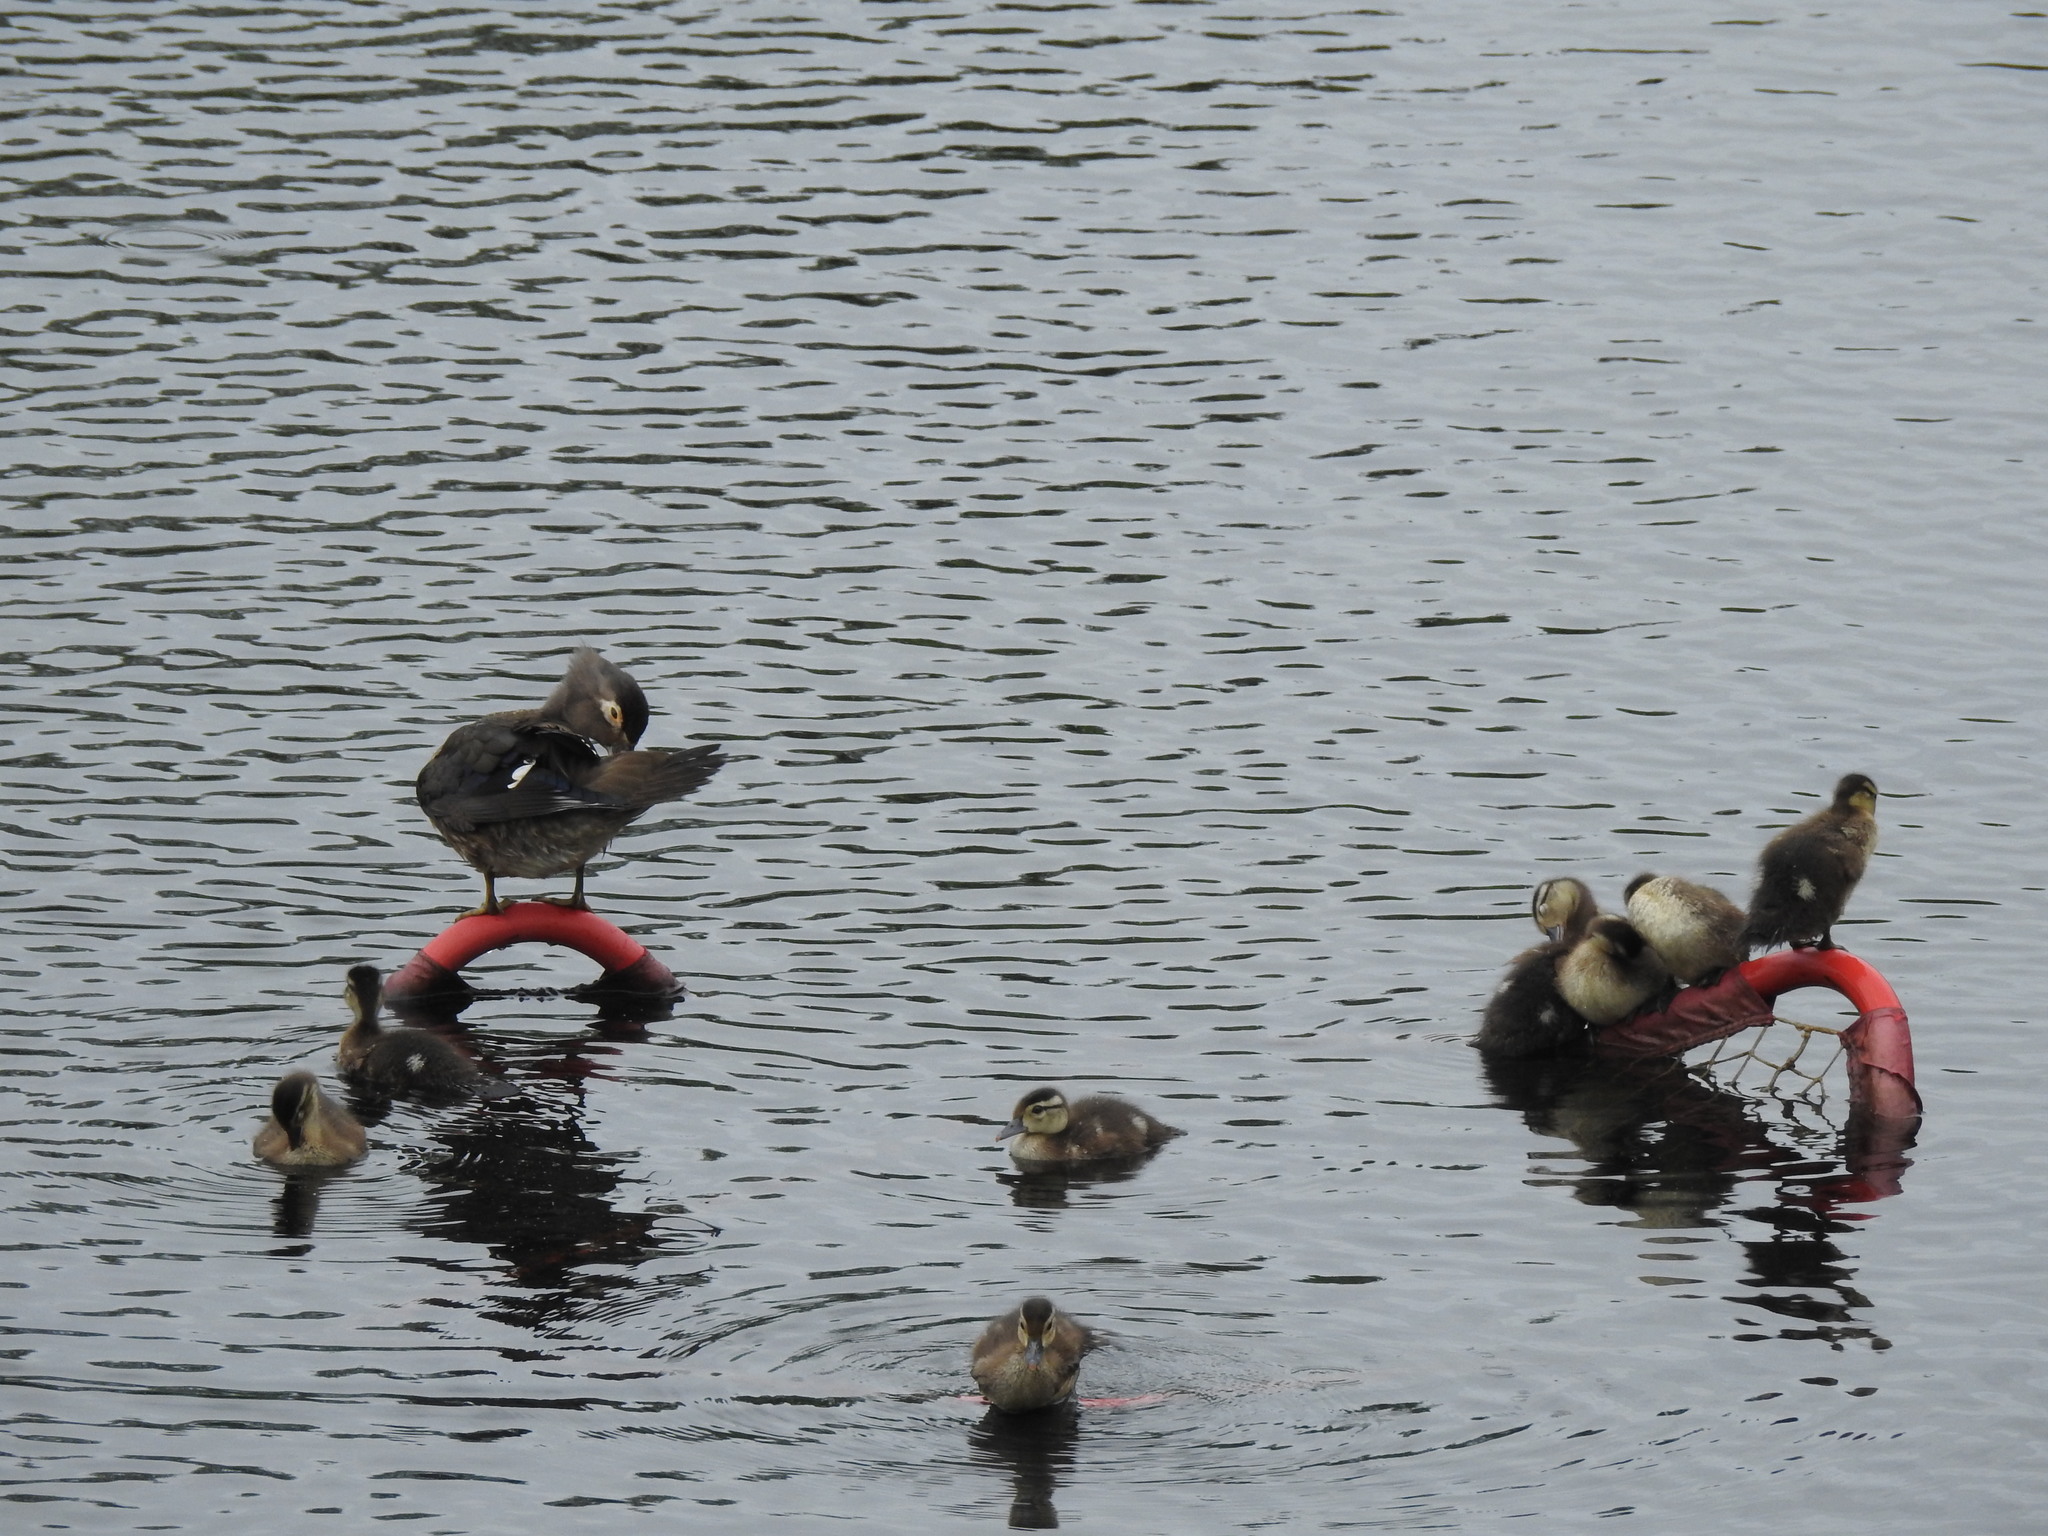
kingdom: Animalia
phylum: Chordata
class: Aves
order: Anseriformes
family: Anatidae
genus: Aix
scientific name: Aix sponsa
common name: Wood duck
